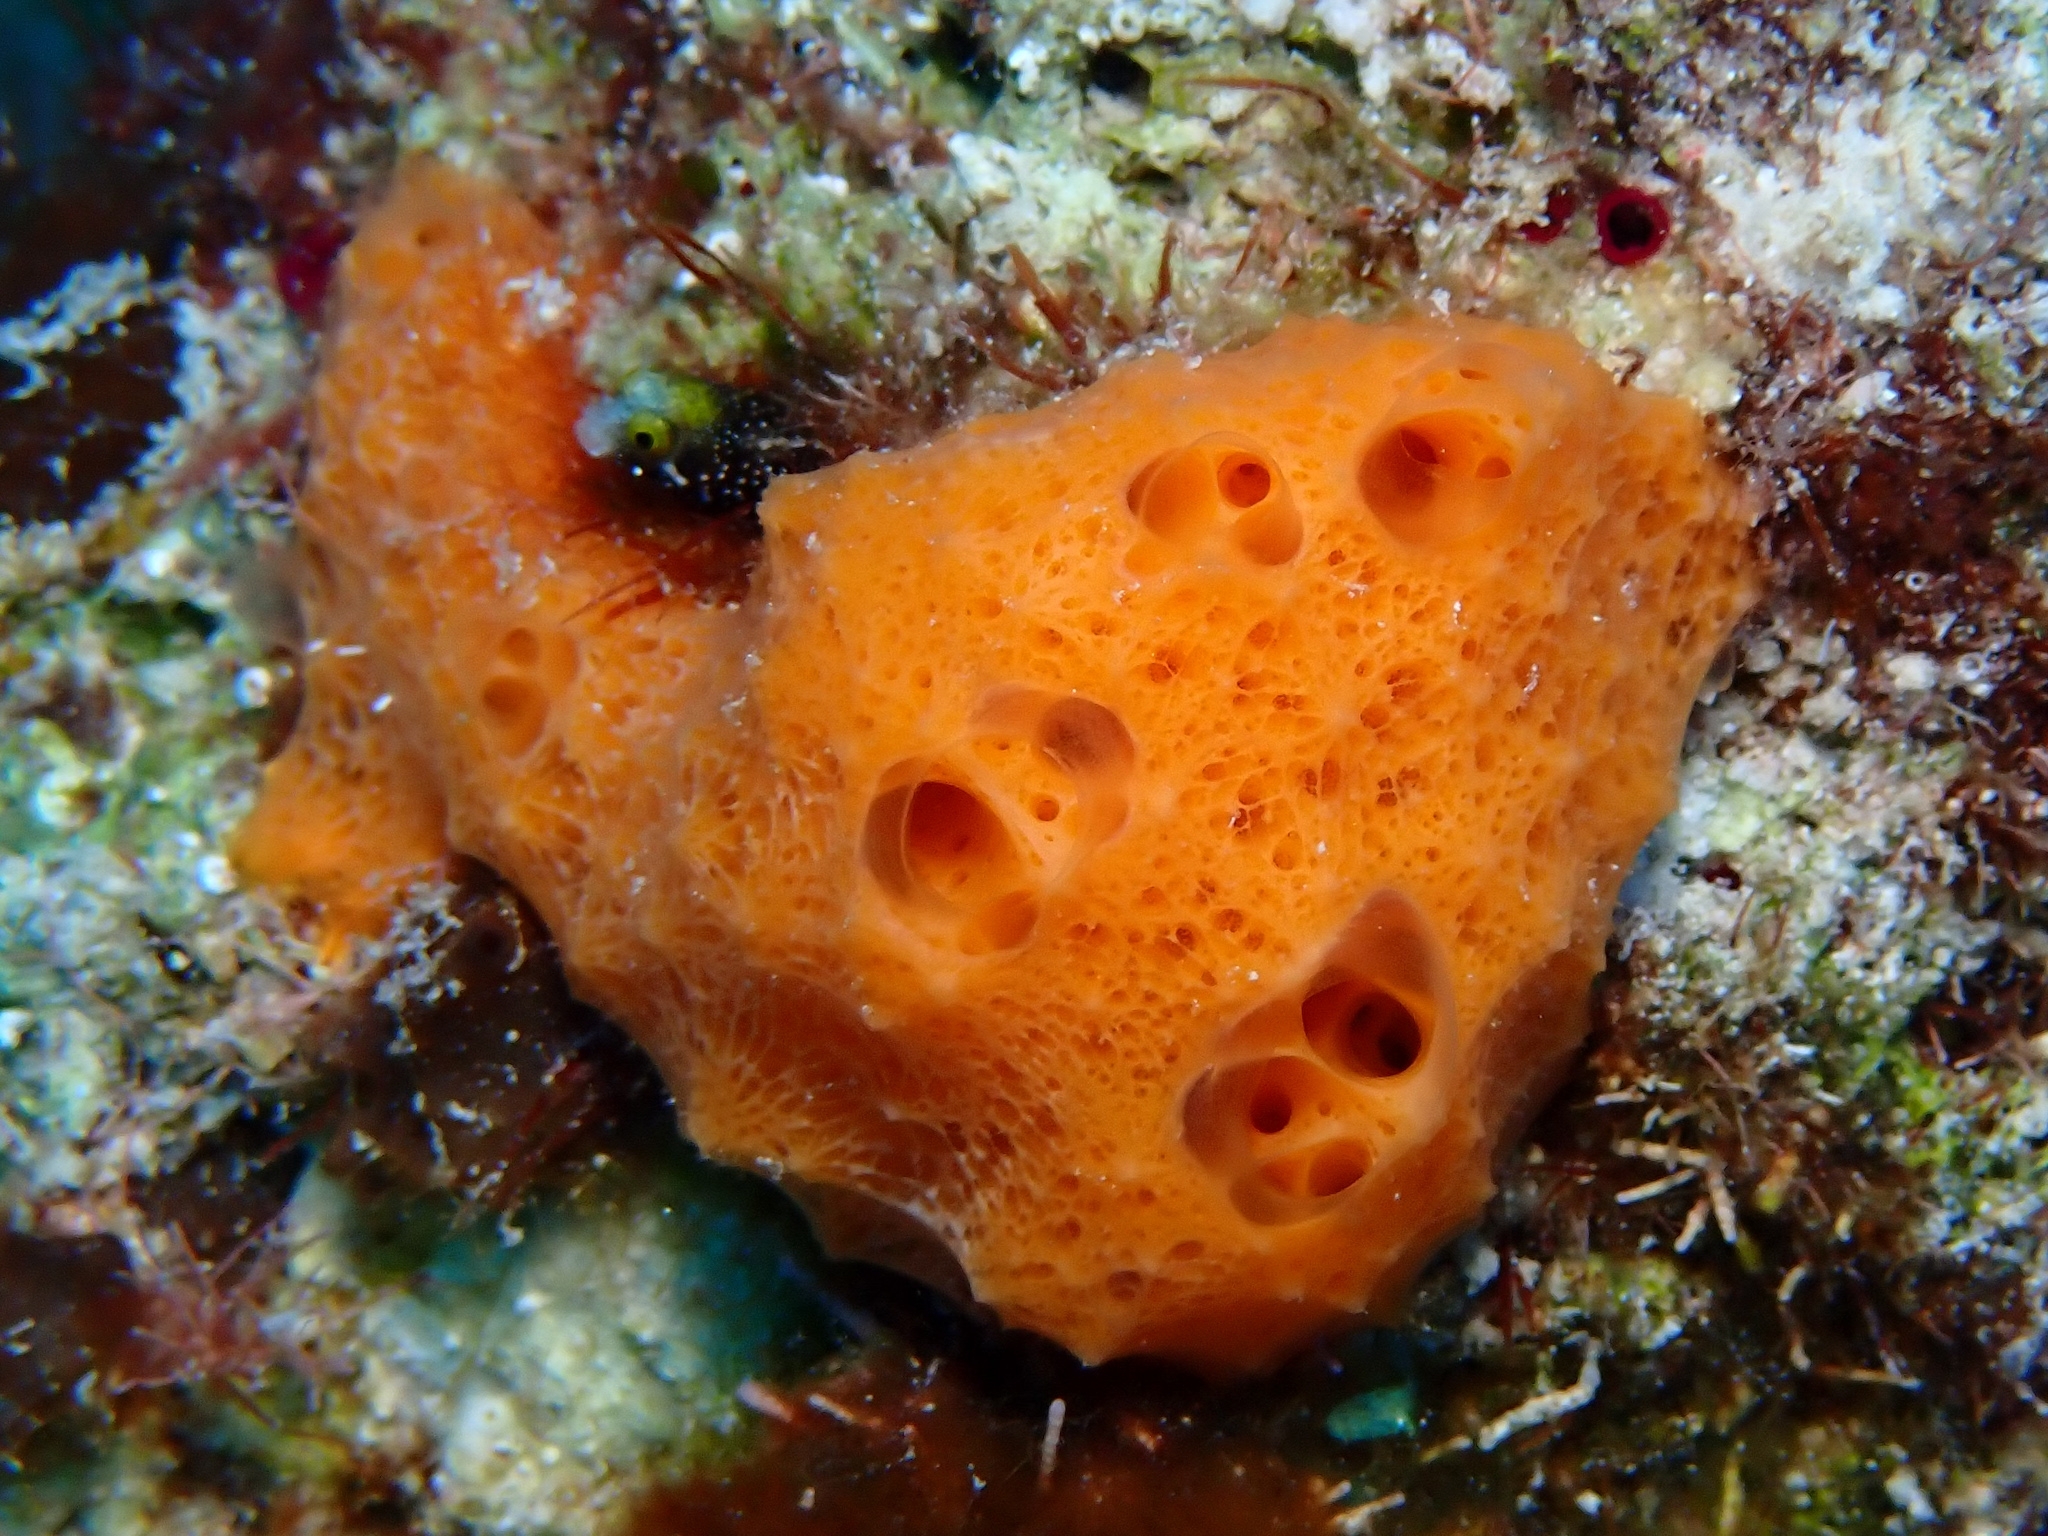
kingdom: Animalia
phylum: Porifera
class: Demospongiae
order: Scopalinida
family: Scopalinidae
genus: Scopalina
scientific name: Scopalina ruetzleri
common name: Orange lumpy encrusting sponge
